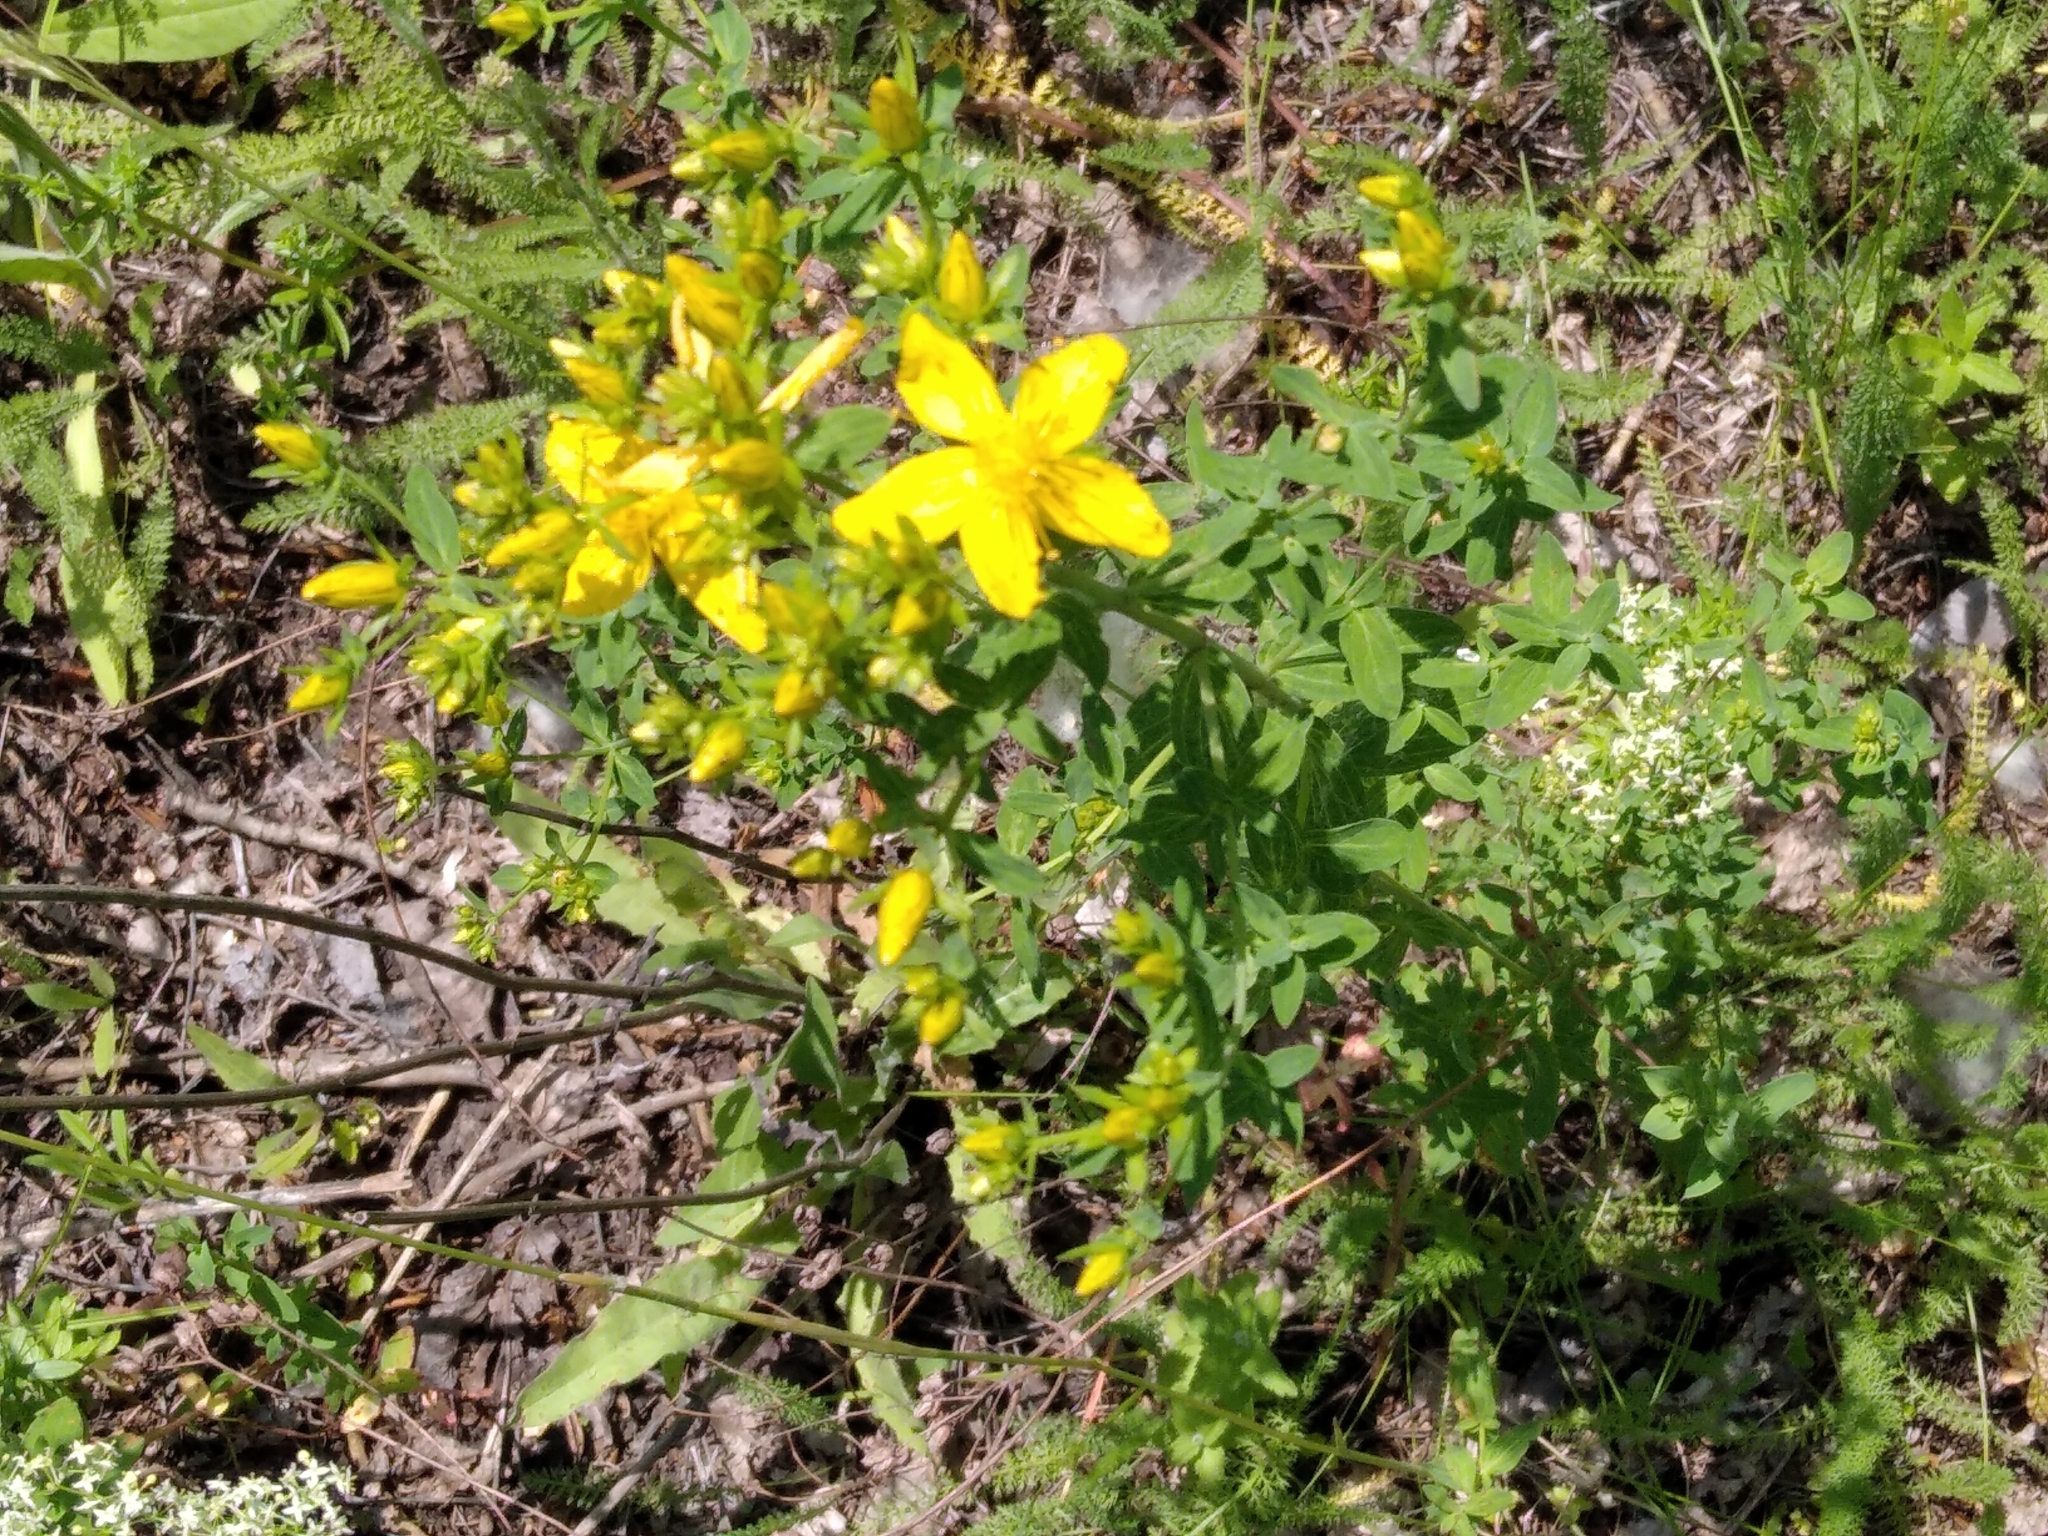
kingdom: Plantae
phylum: Tracheophyta
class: Magnoliopsida
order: Malpighiales
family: Hypericaceae
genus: Hypericum
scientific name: Hypericum perforatum
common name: Common st. johnswort
